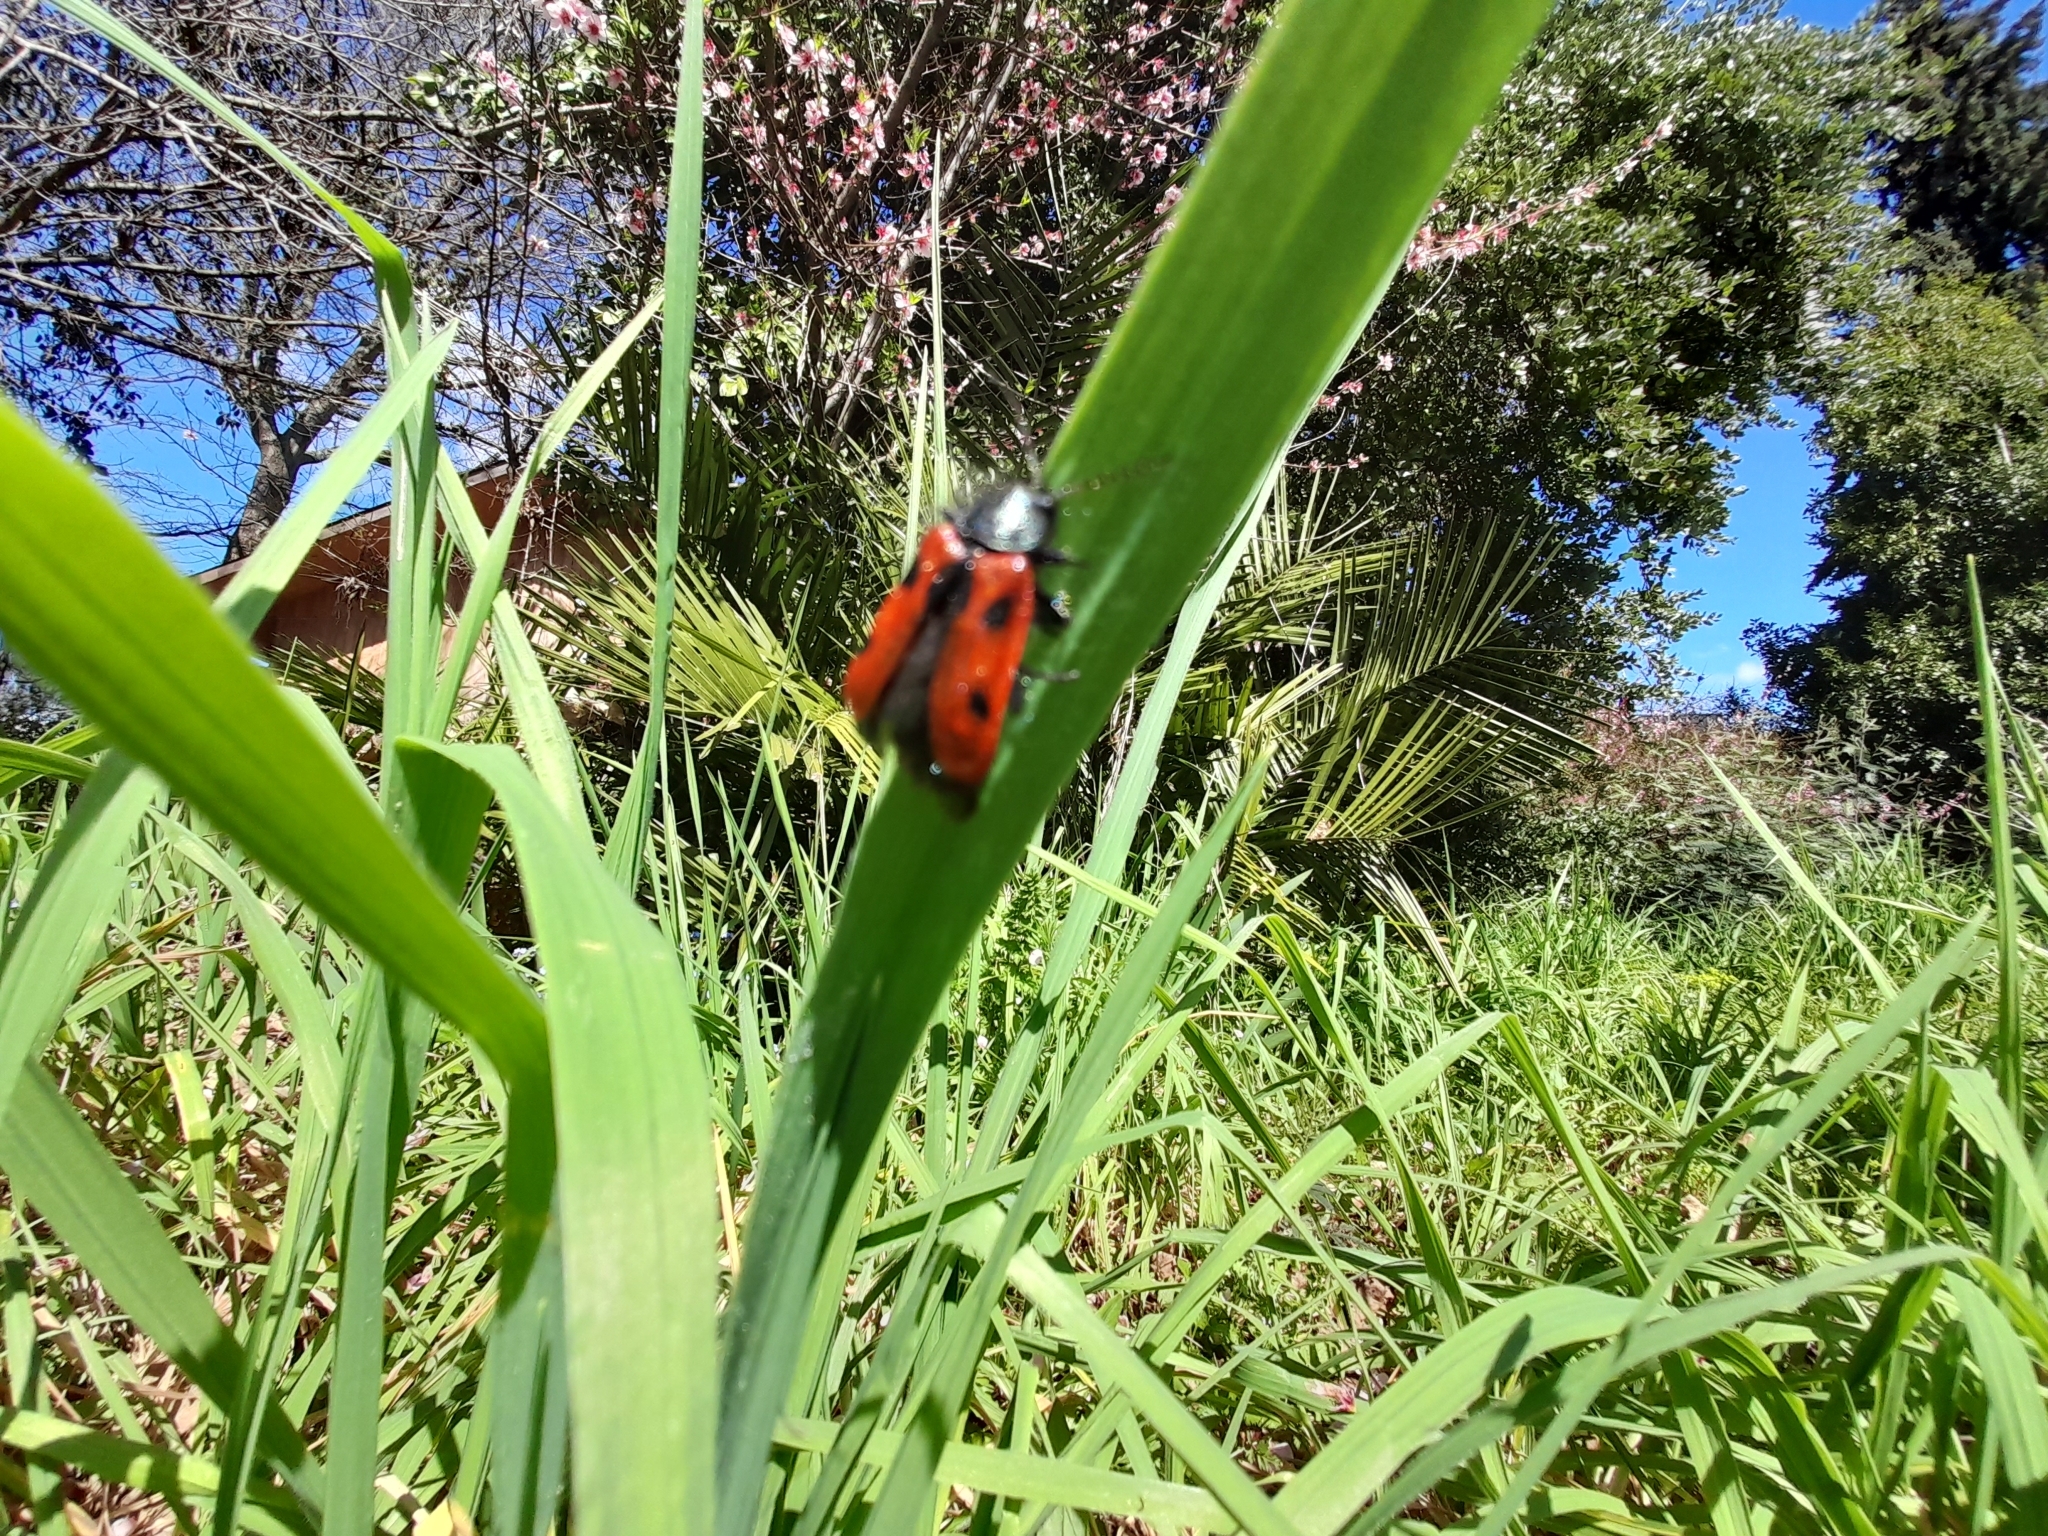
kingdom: Animalia
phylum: Arthropoda
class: Insecta
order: Coleoptera
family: Melyridae
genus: Astylus
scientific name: Astylus
